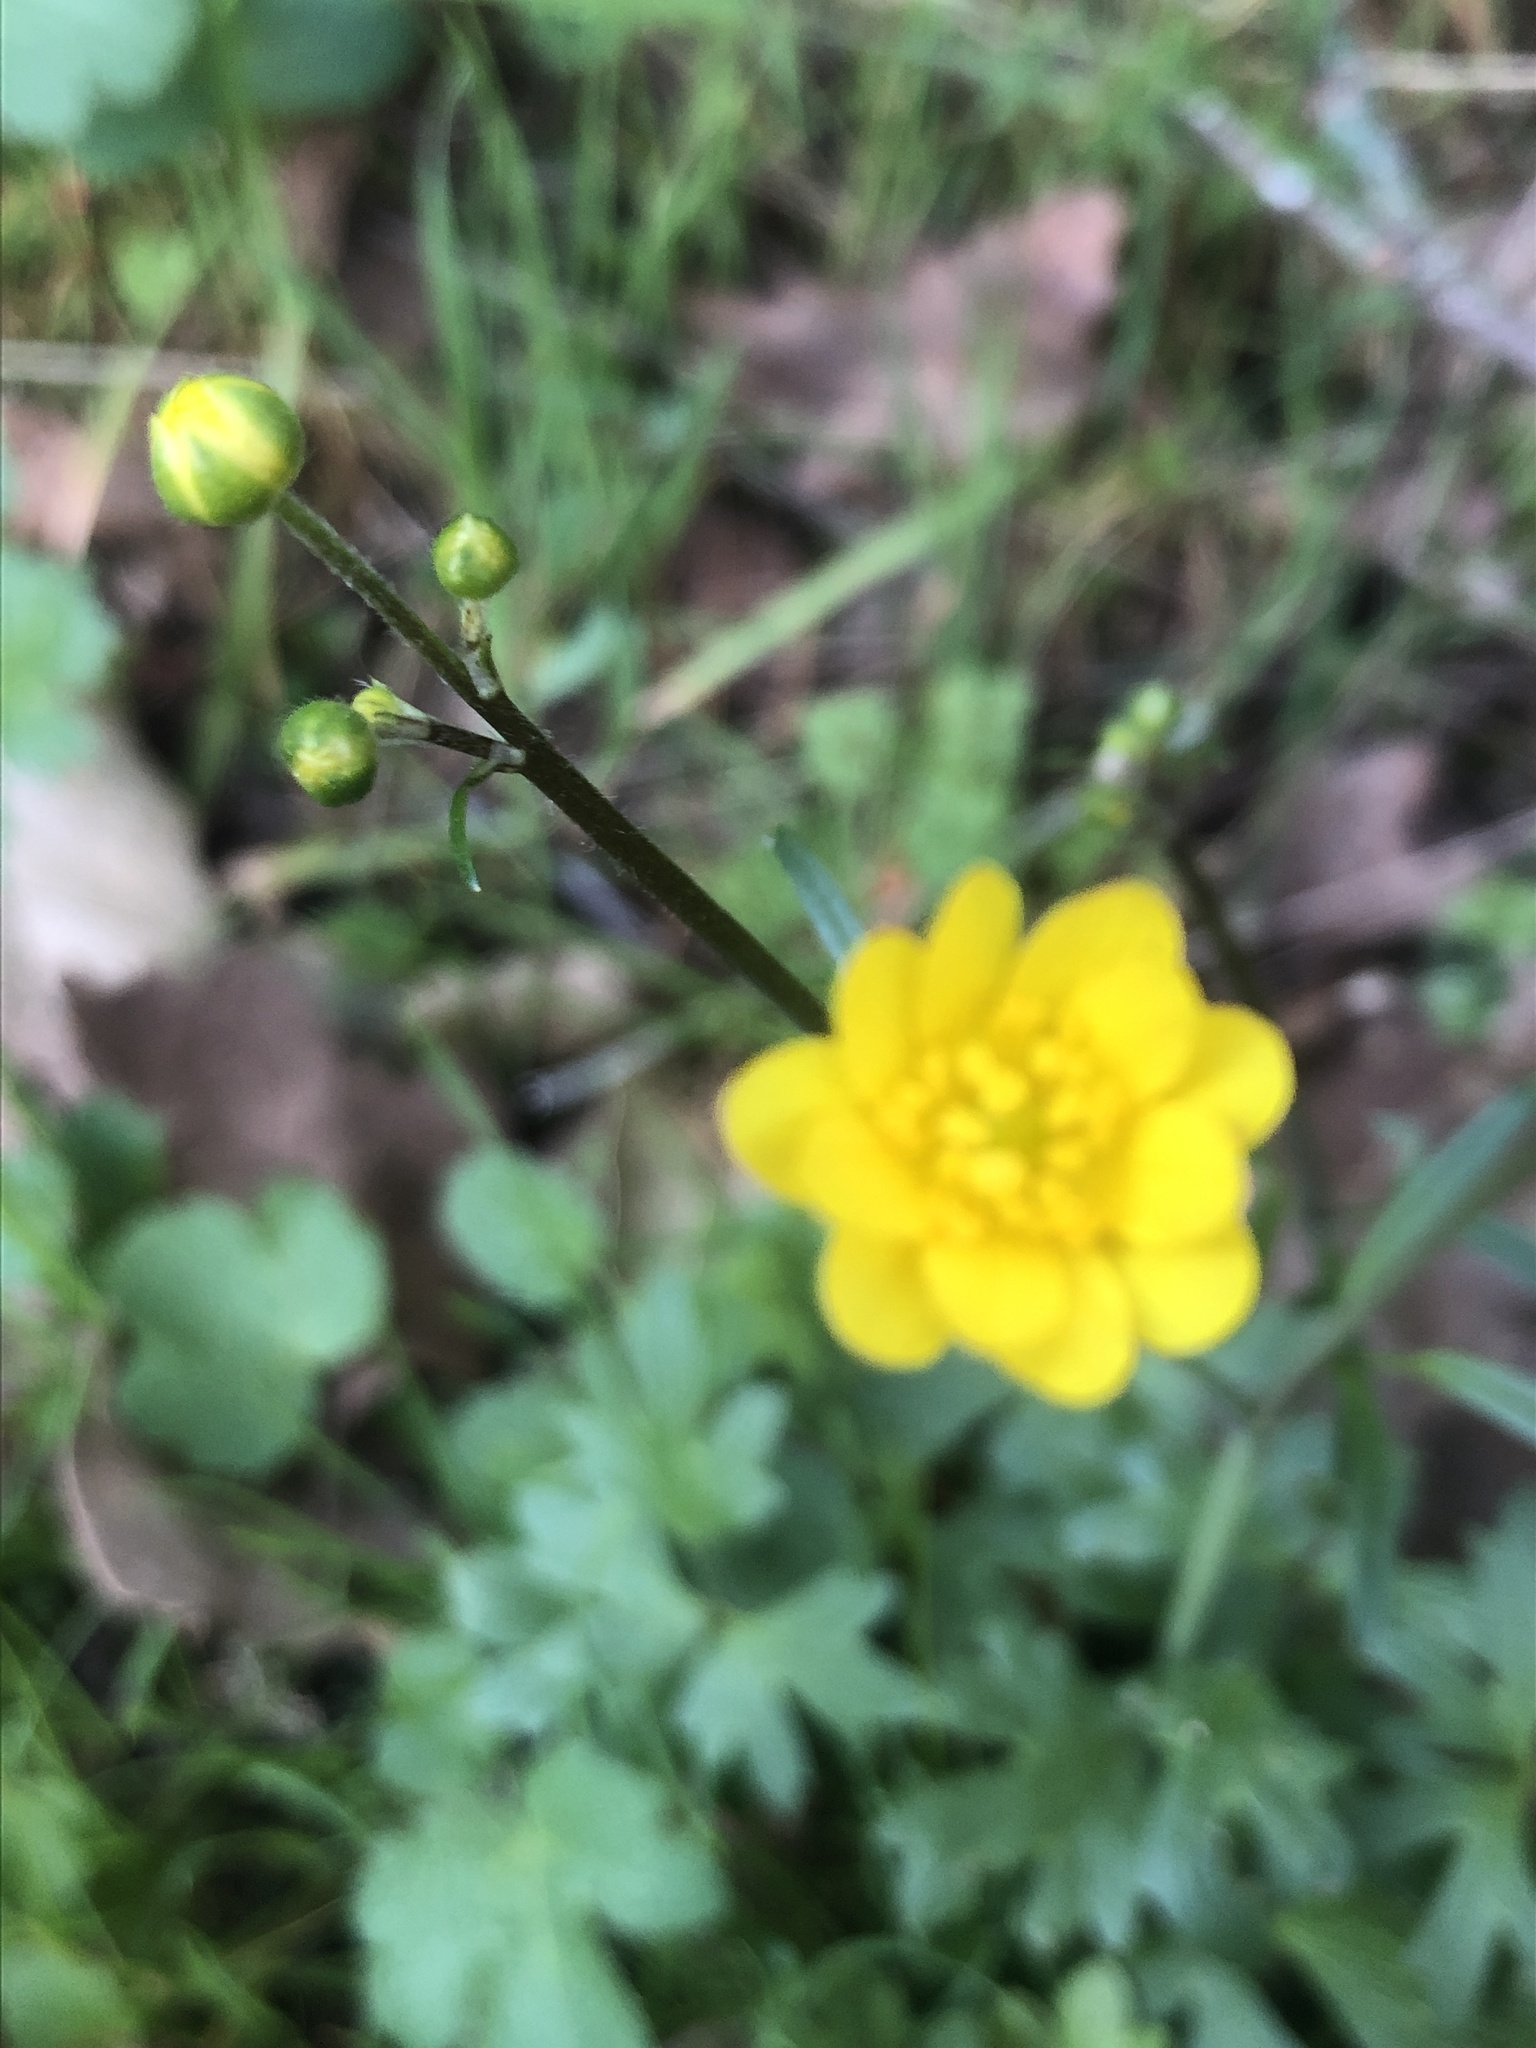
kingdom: Plantae
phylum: Tracheophyta
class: Magnoliopsida
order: Ranunculales
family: Ranunculaceae
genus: Ranunculus
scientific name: Ranunculus californicus
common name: California buttercup
